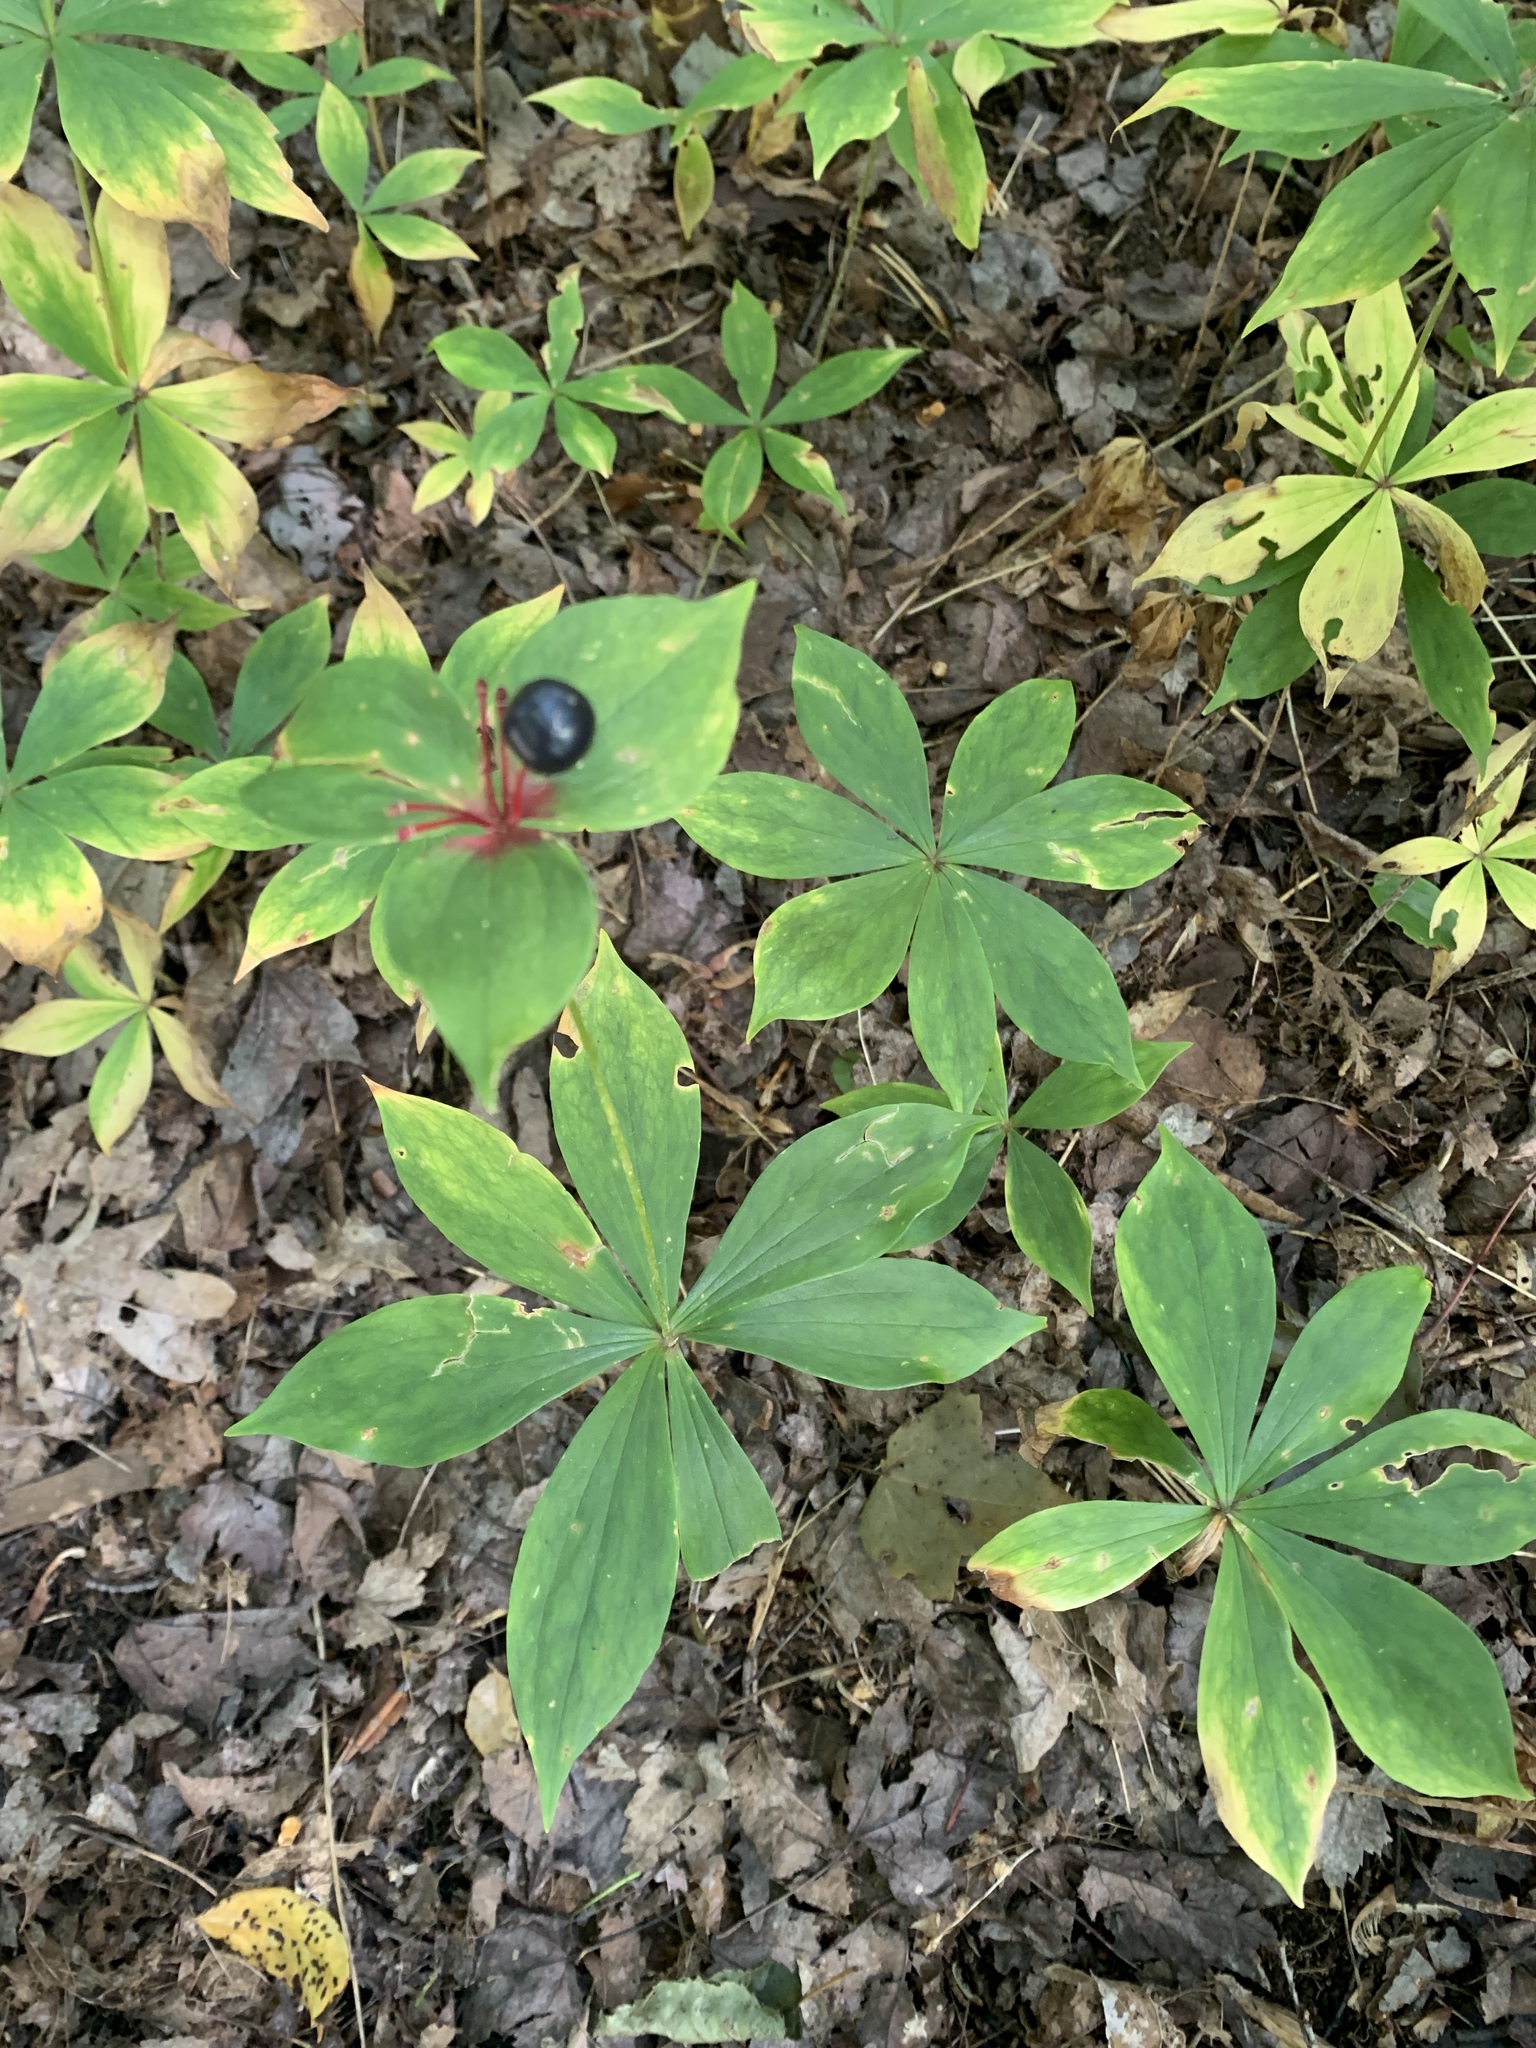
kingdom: Plantae
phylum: Tracheophyta
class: Liliopsida
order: Liliales
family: Liliaceae
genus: Medeola
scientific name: Medeola virginiana
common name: Indian cucumber-root
